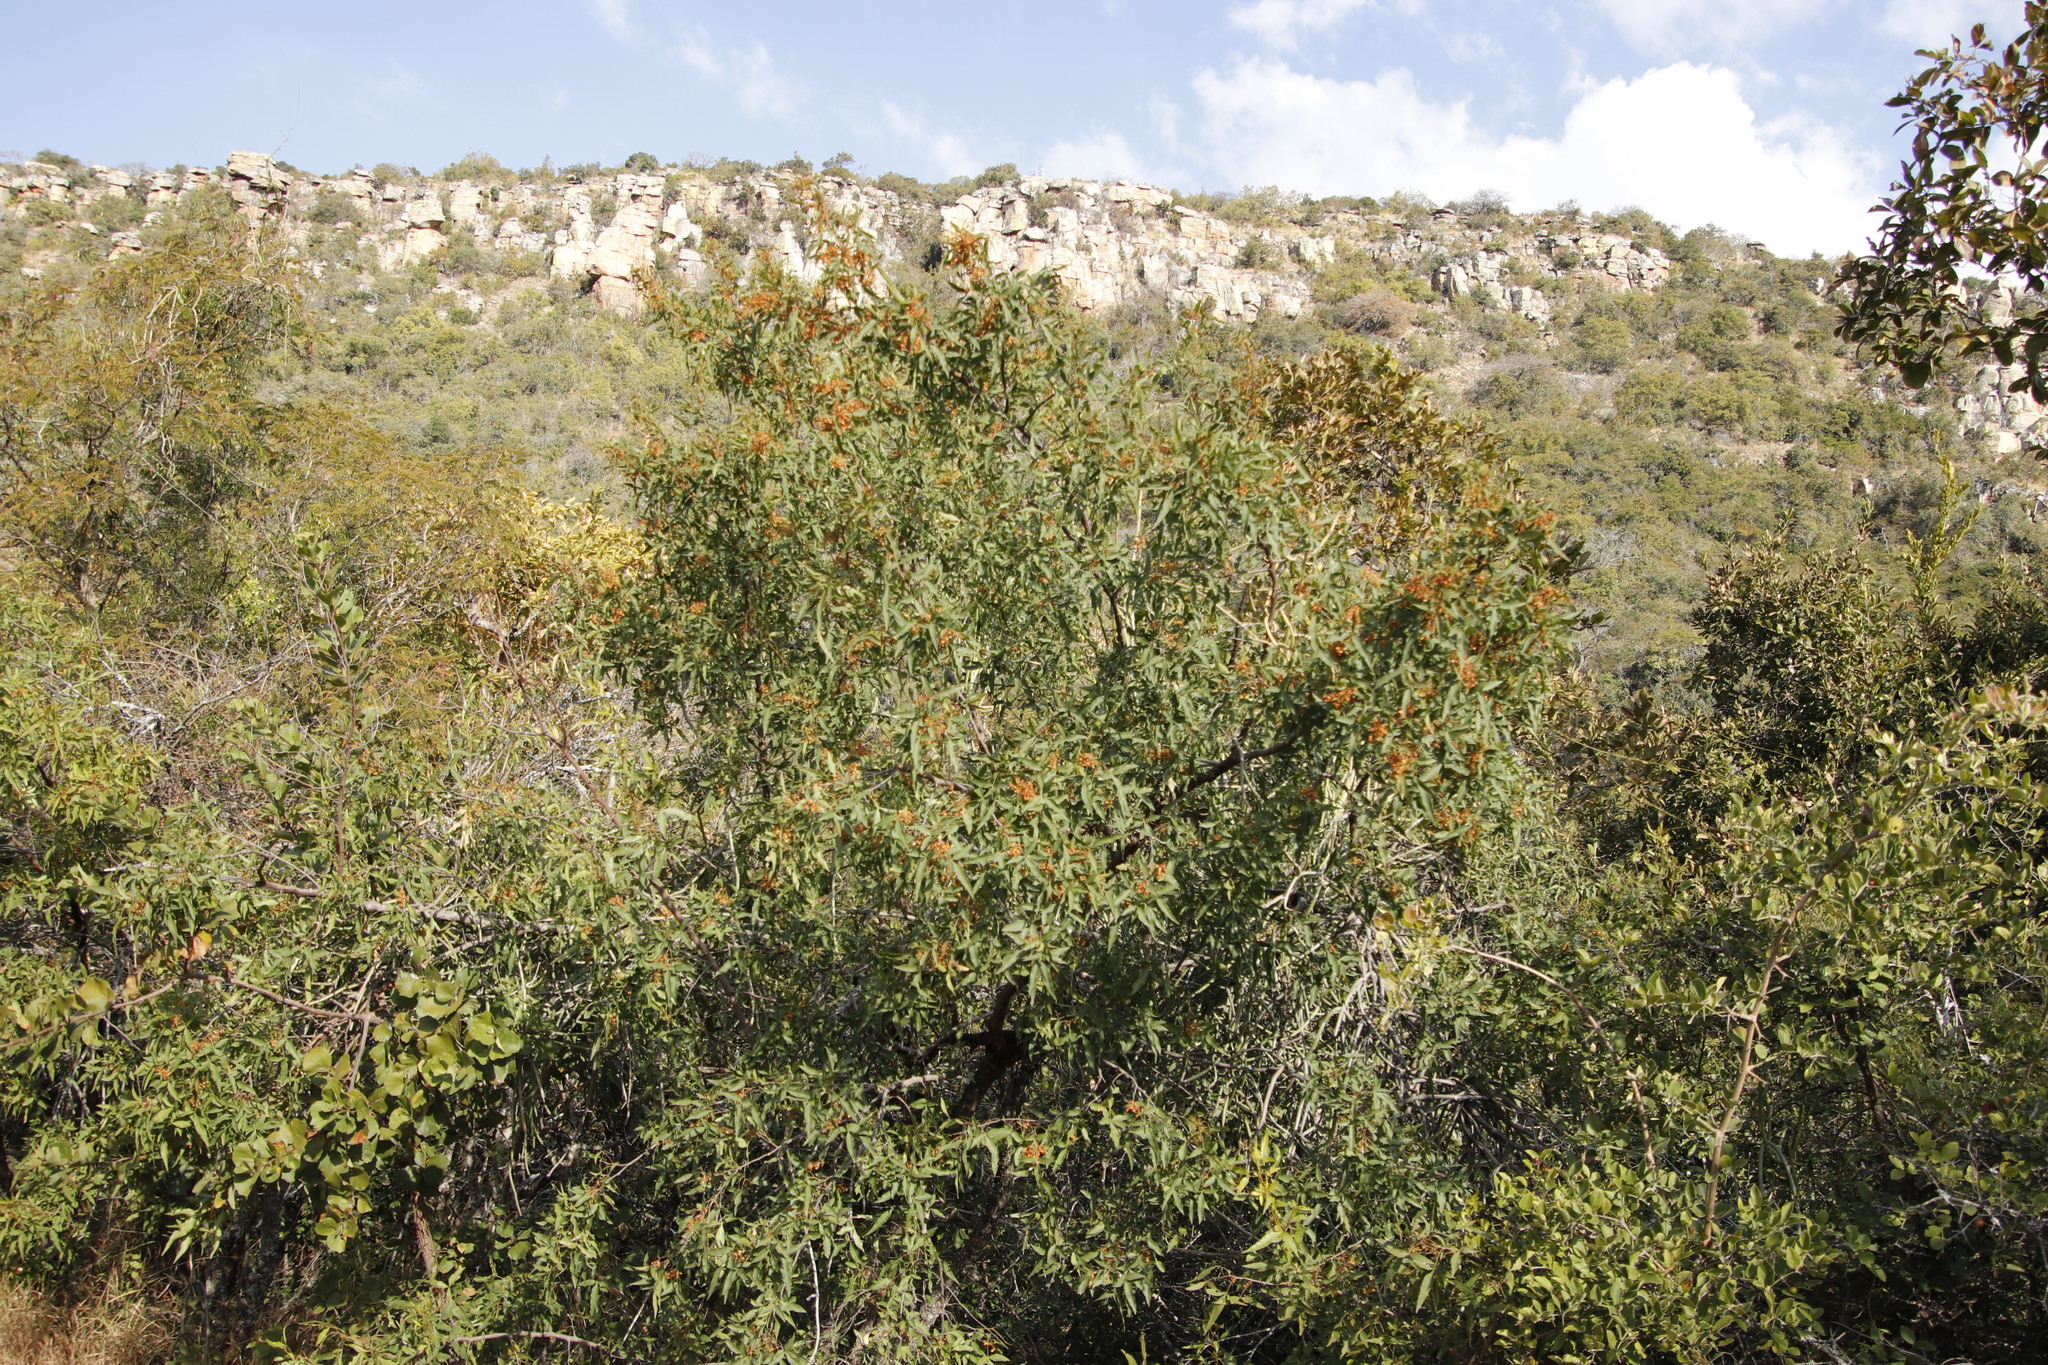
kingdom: Plantae
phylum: Tracheophyta
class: Magnoliopsida
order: Sapindales
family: Anacardiaceae
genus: Searsia
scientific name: Searsia leptodictya
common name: Mountain karee
